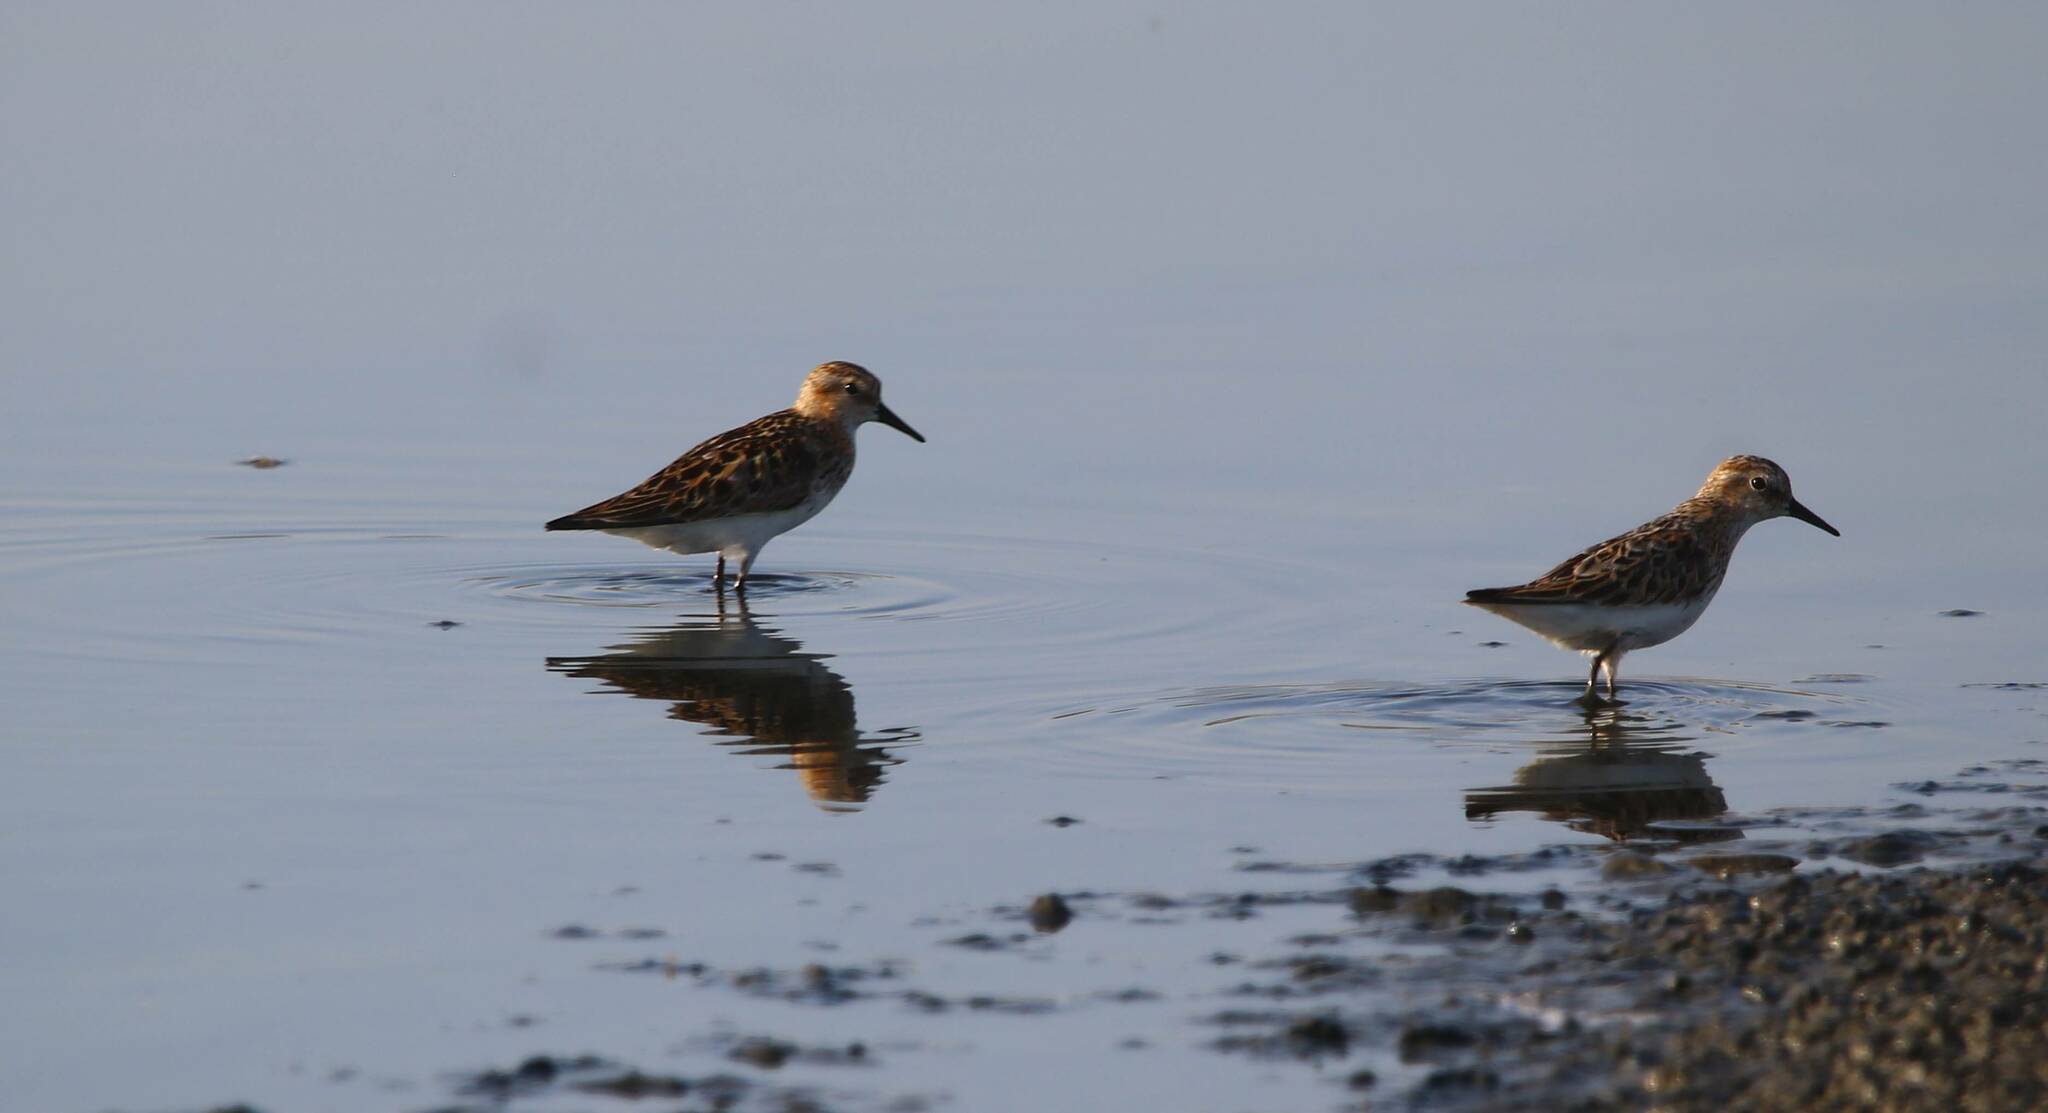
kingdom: Animalia
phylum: Chordata
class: Aves
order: Charadriiformes
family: Scolopacidae
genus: Calidris
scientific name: Calidris minuta
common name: Little stint
